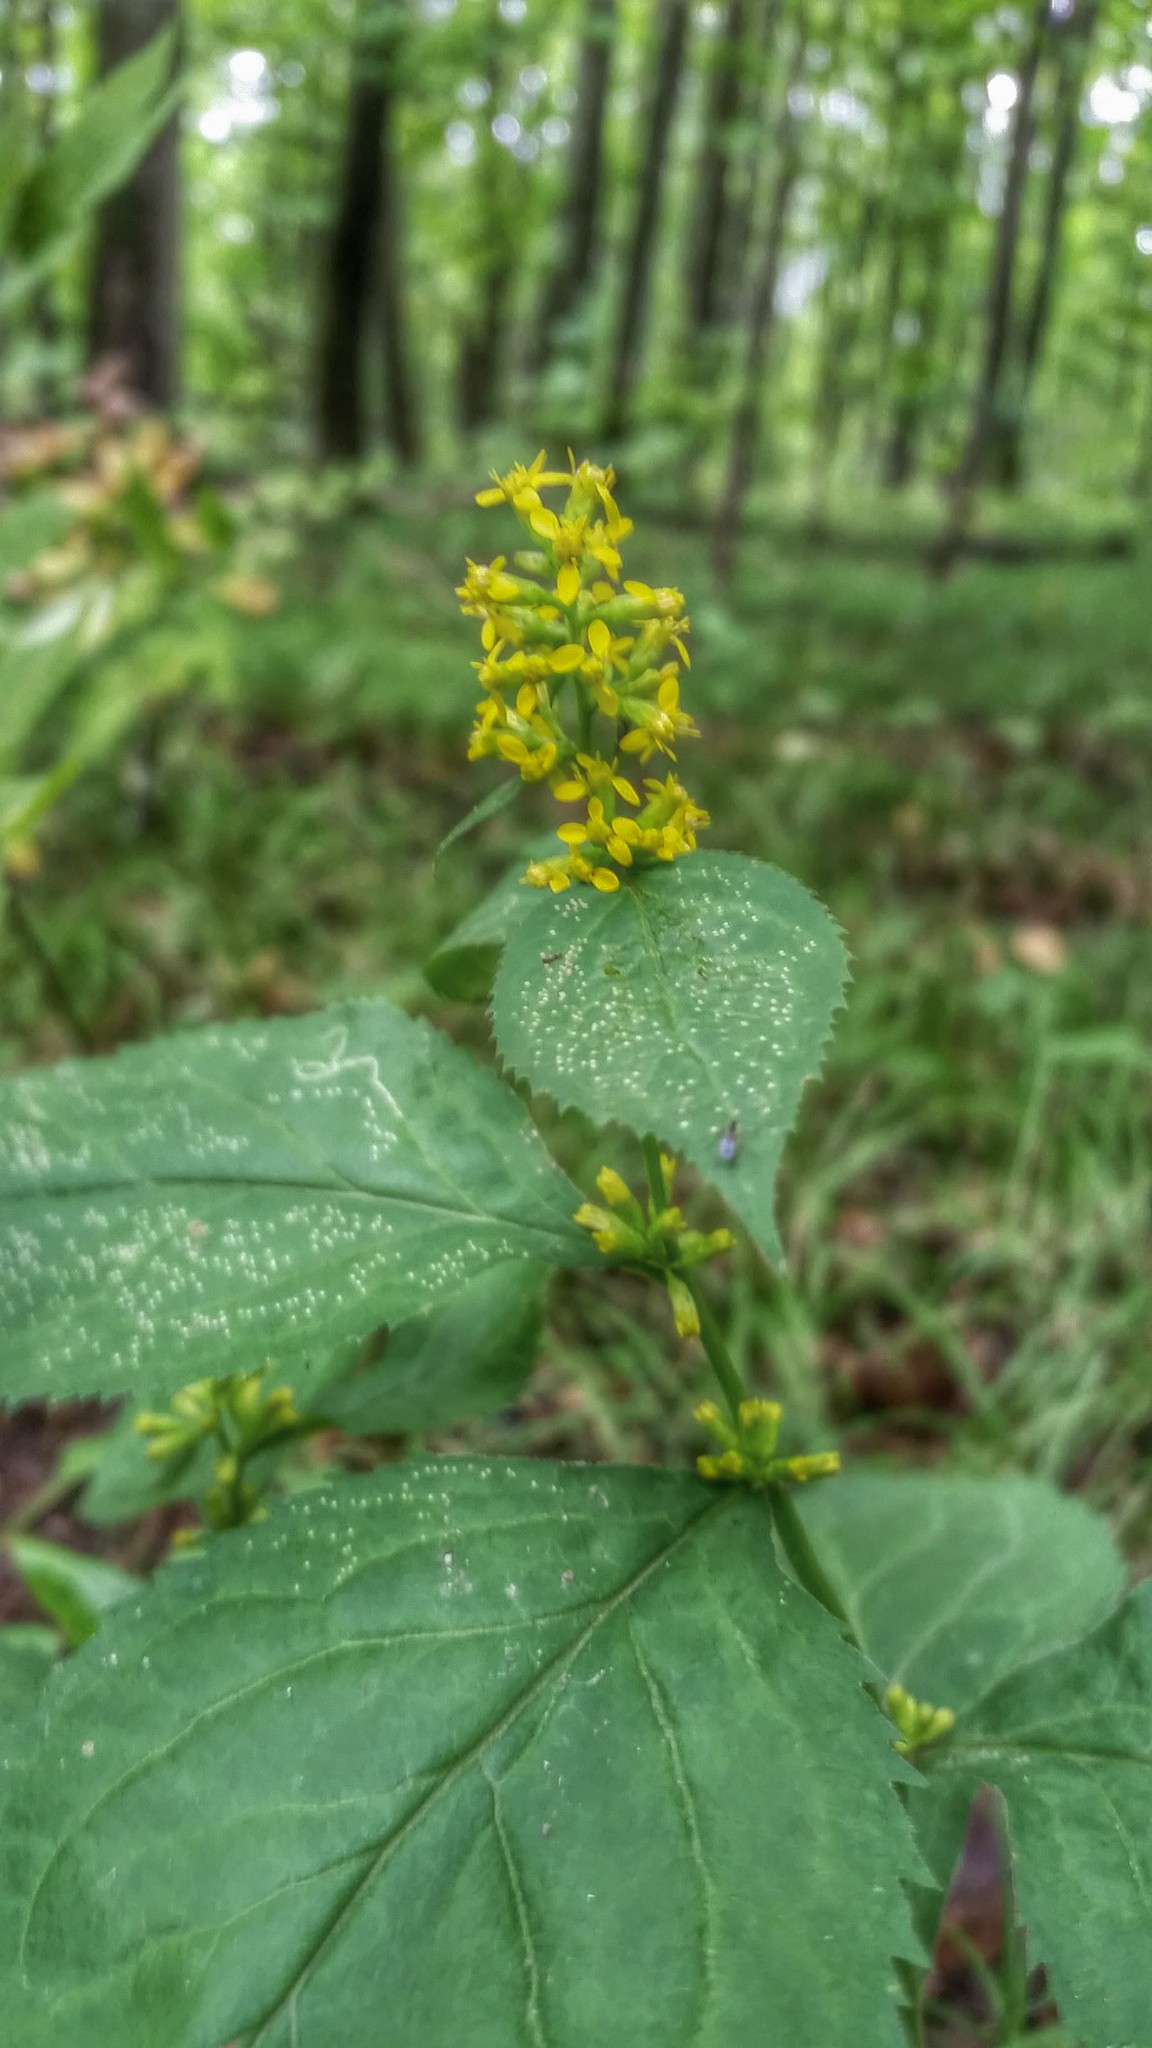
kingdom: Plantae
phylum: Tracheophyta
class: Magnoliopsida
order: Asterales
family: Asteraceae
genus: Solidago
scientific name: Solidago flexicaulis
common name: Zig-zag goldenrod
